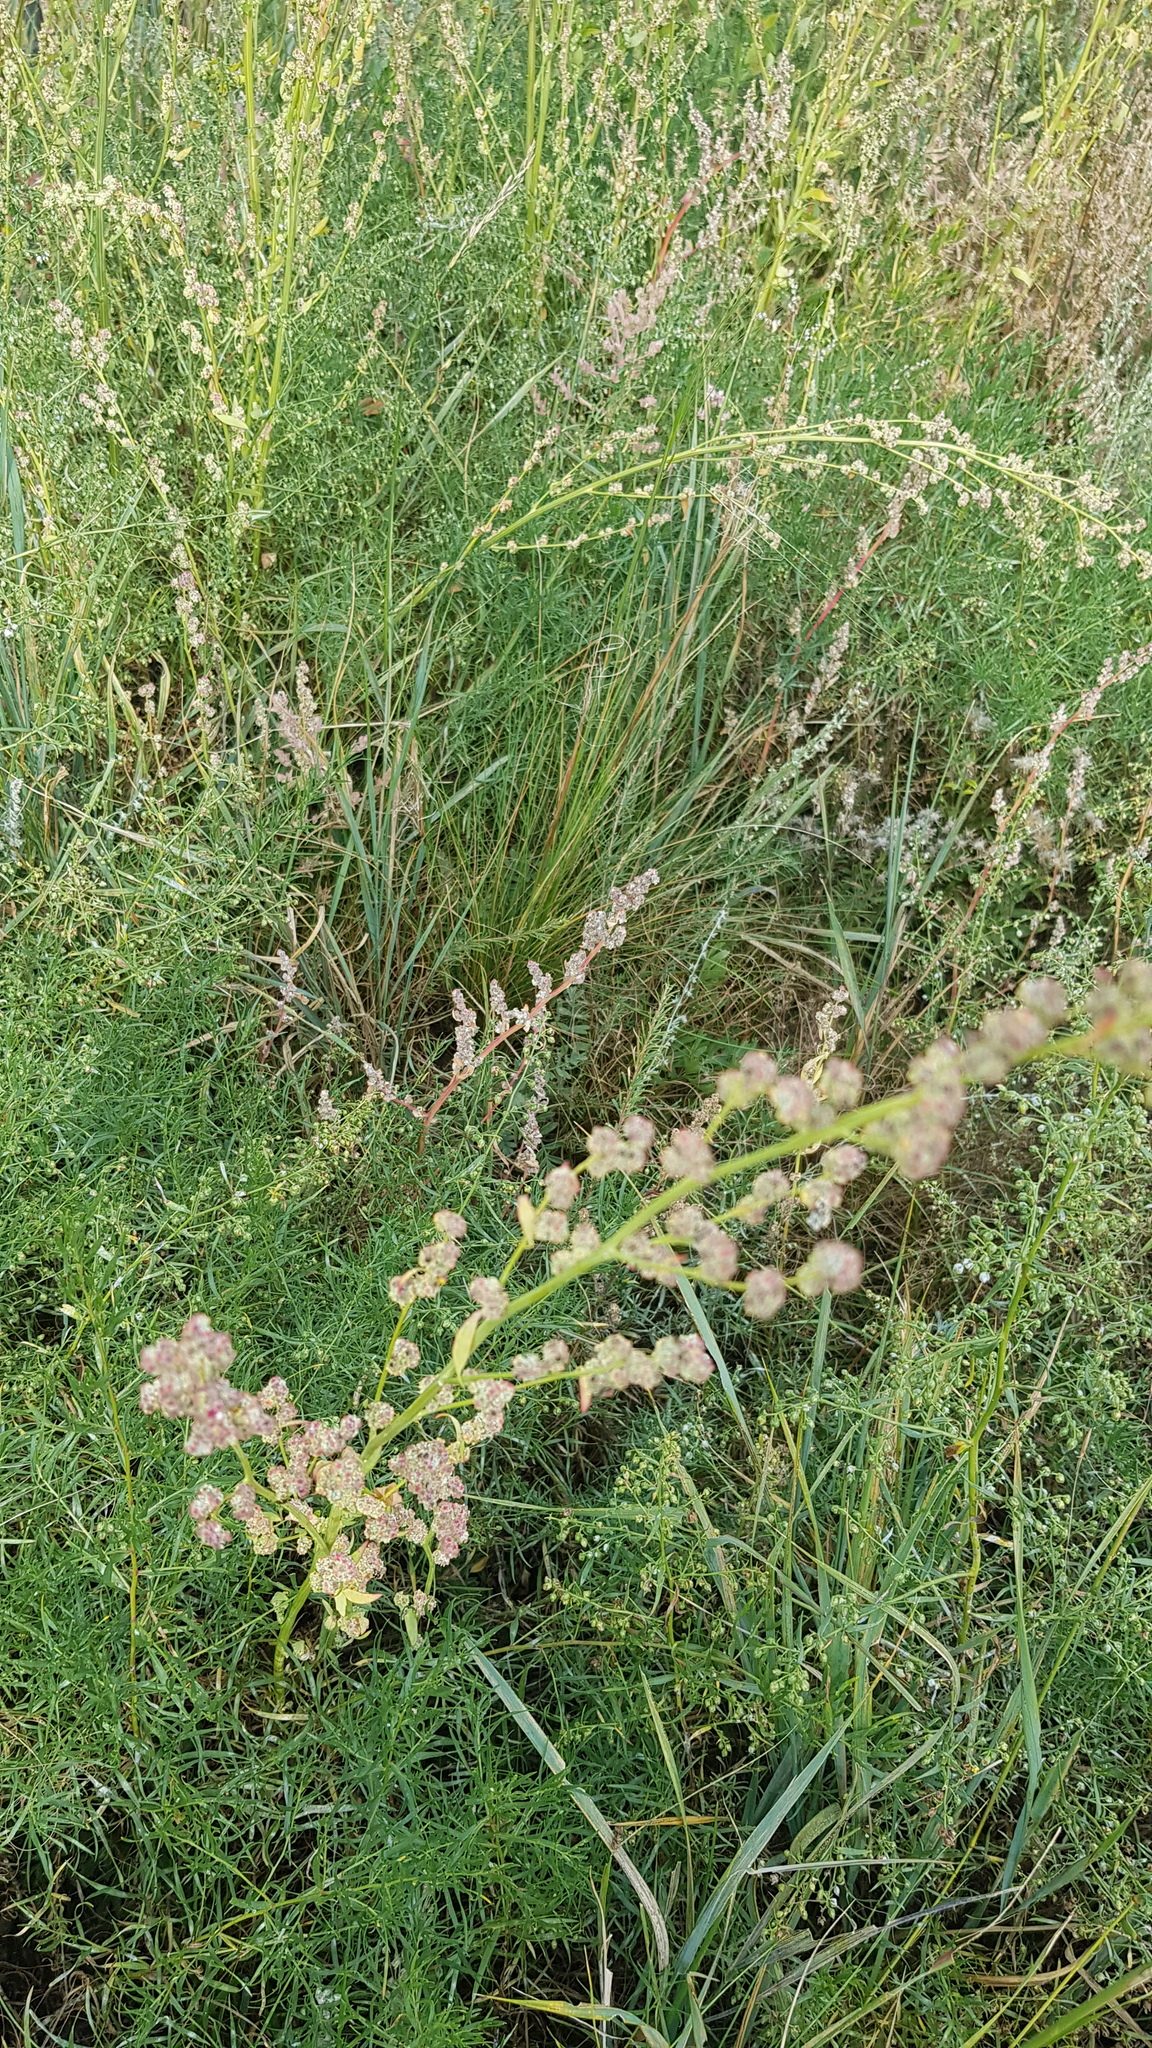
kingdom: Plantae
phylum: Tracheophyta
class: Magnoliopsida
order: Caryophyllales
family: Polygonaceae
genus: Rumex
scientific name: Rumex acetosa
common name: Garden sorrel
